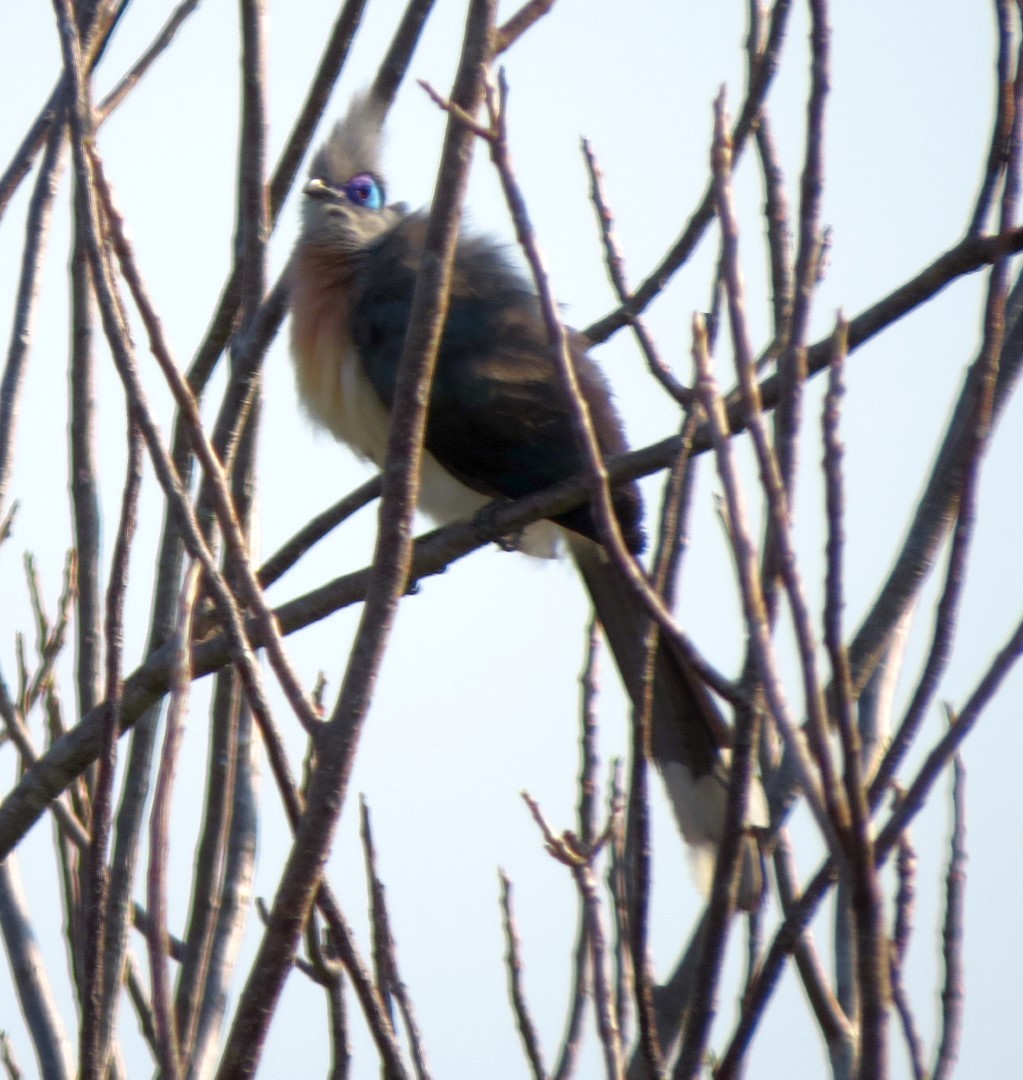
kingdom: Animalia
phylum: Chordata
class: Aves
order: Cuculiformes
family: Cuculidae
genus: Coua
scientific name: Coua cristata
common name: Crested coua
